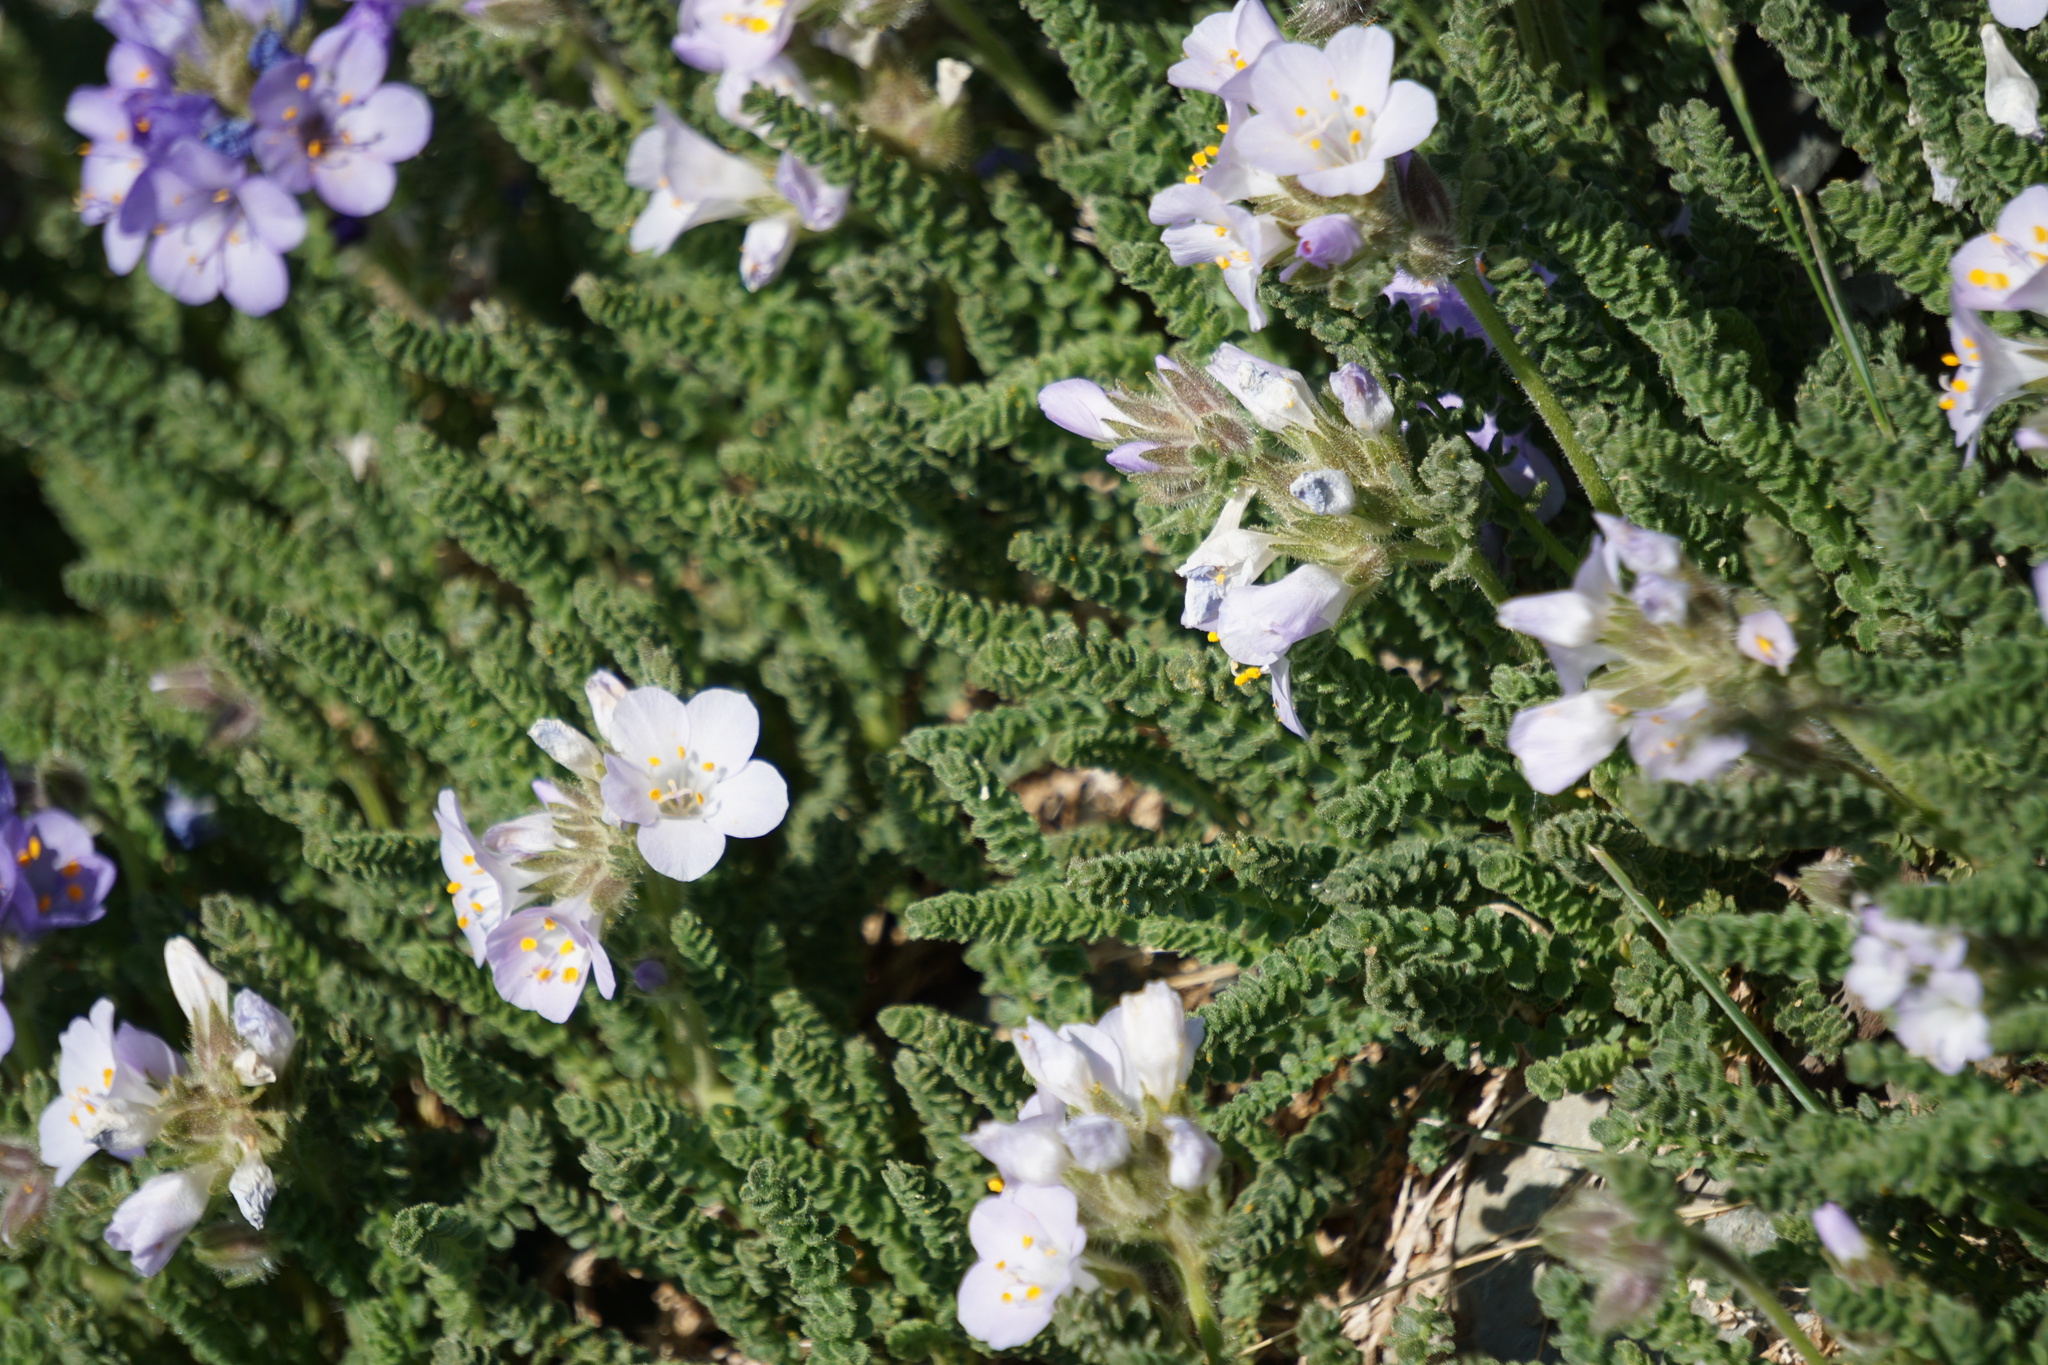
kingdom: Plantae
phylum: Tracheophyta
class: Magnoliopsida
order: Ericales
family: Polemoniaceae
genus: Polemonium
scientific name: Polemonium viscosum
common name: Skunk jacob's-ladder
